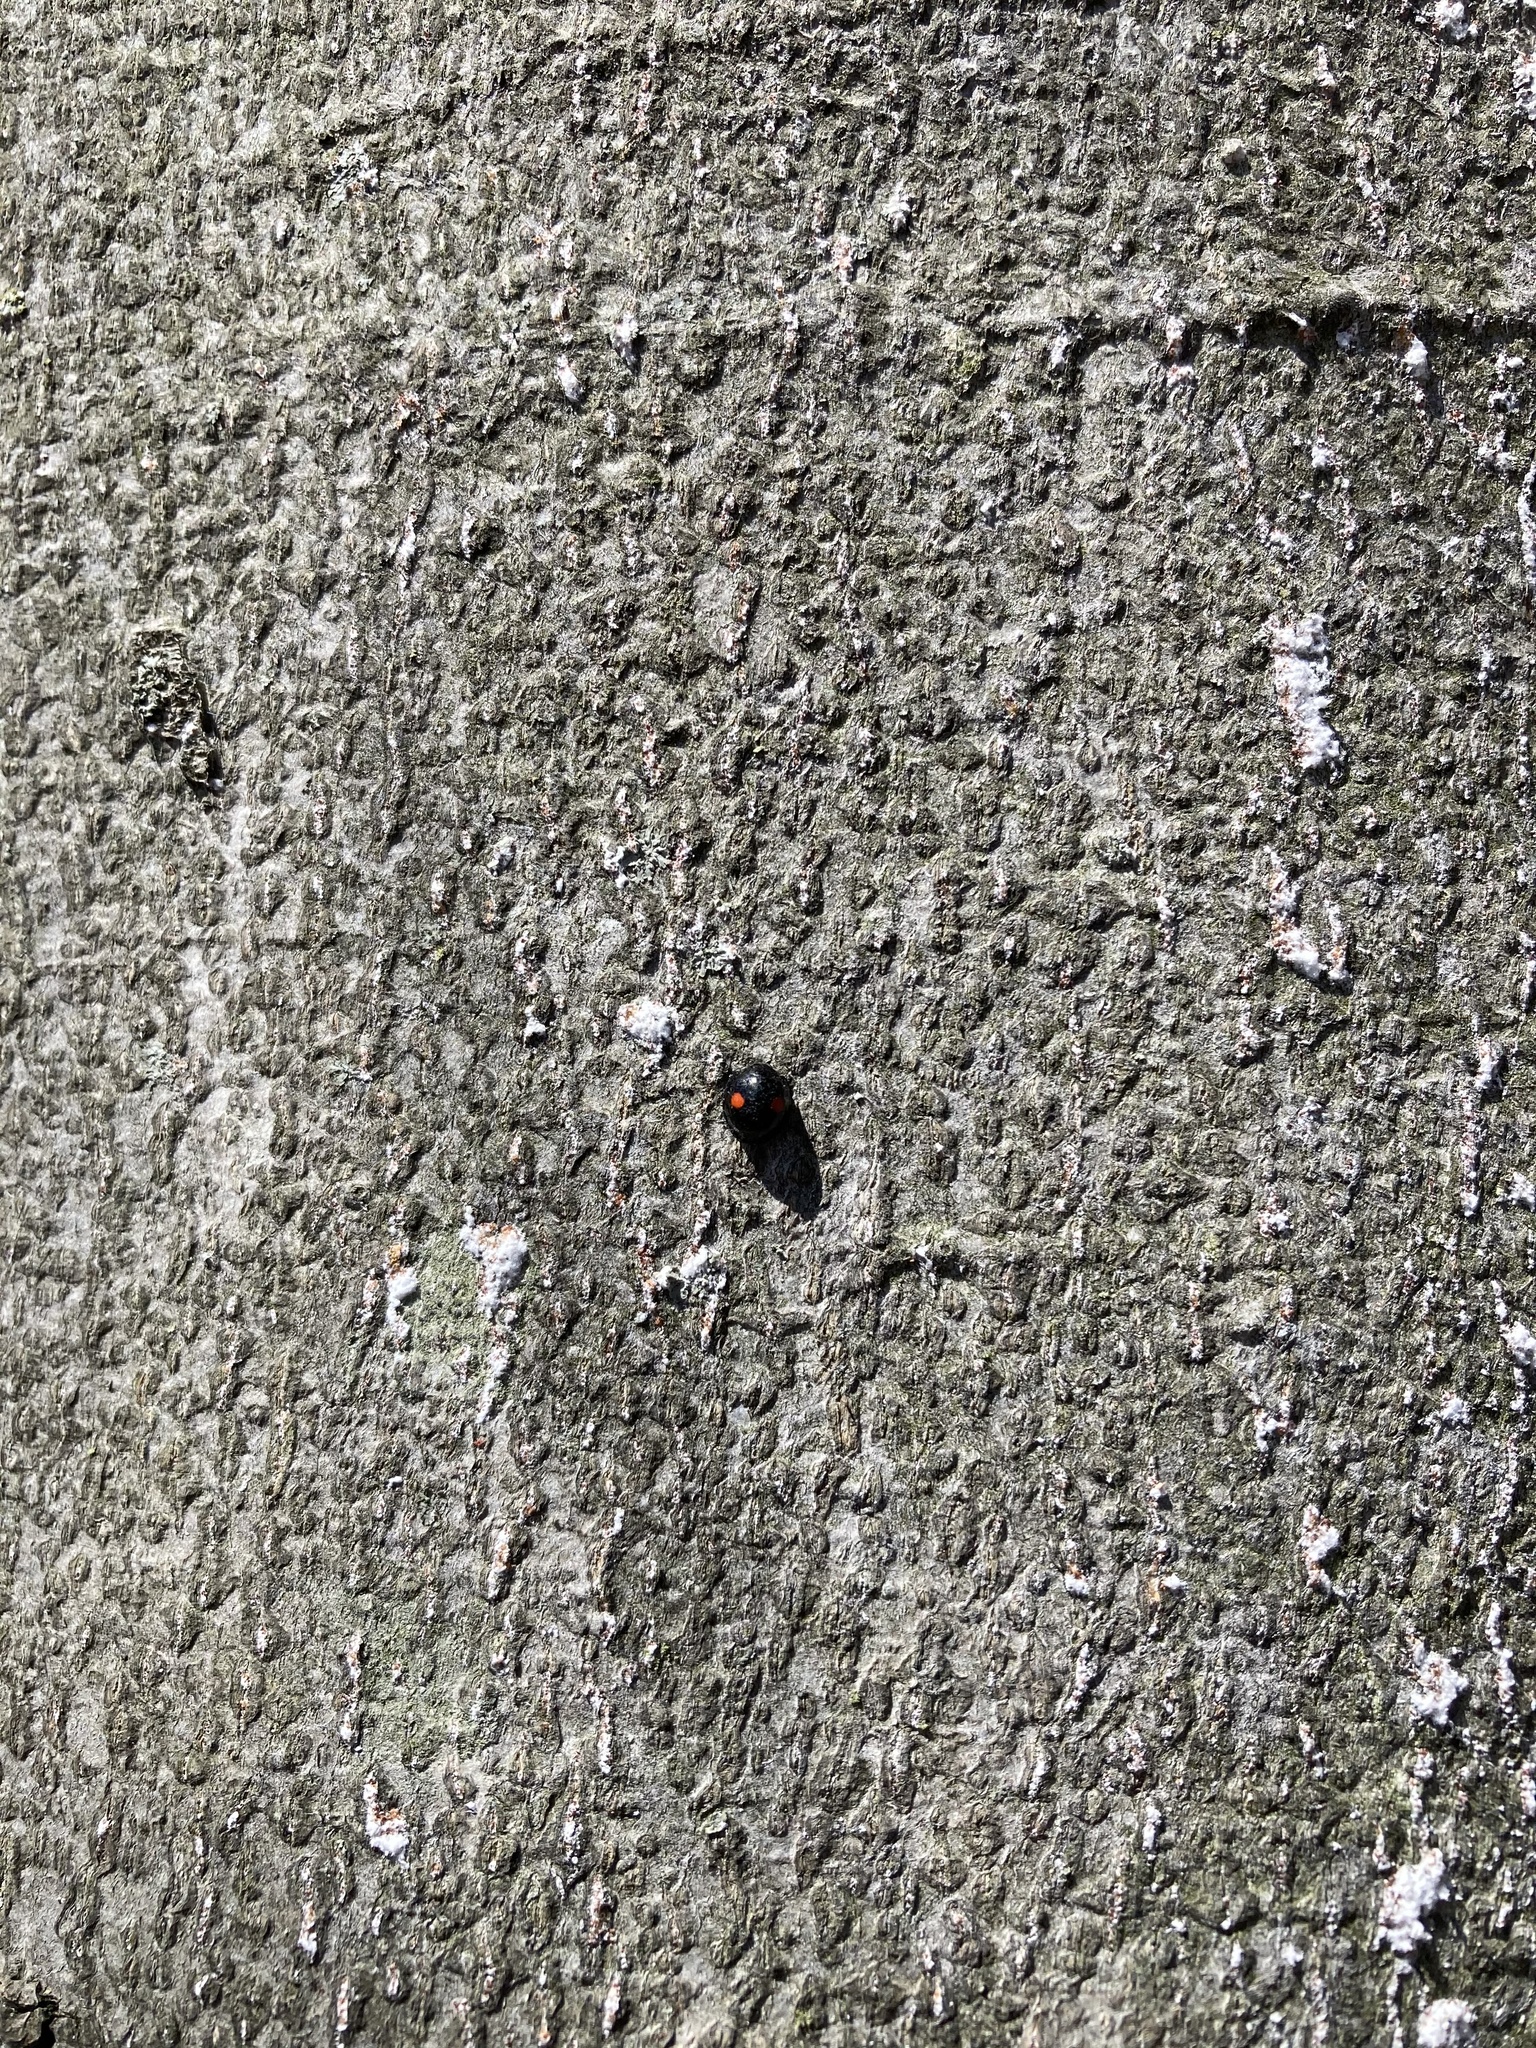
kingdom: Animalia
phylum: Arthropoda
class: Insecta
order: Coleoptera
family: Coccinellidae
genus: Chilocorus
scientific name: Chilocorus stigma
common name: Twicestabbed lady beetle
